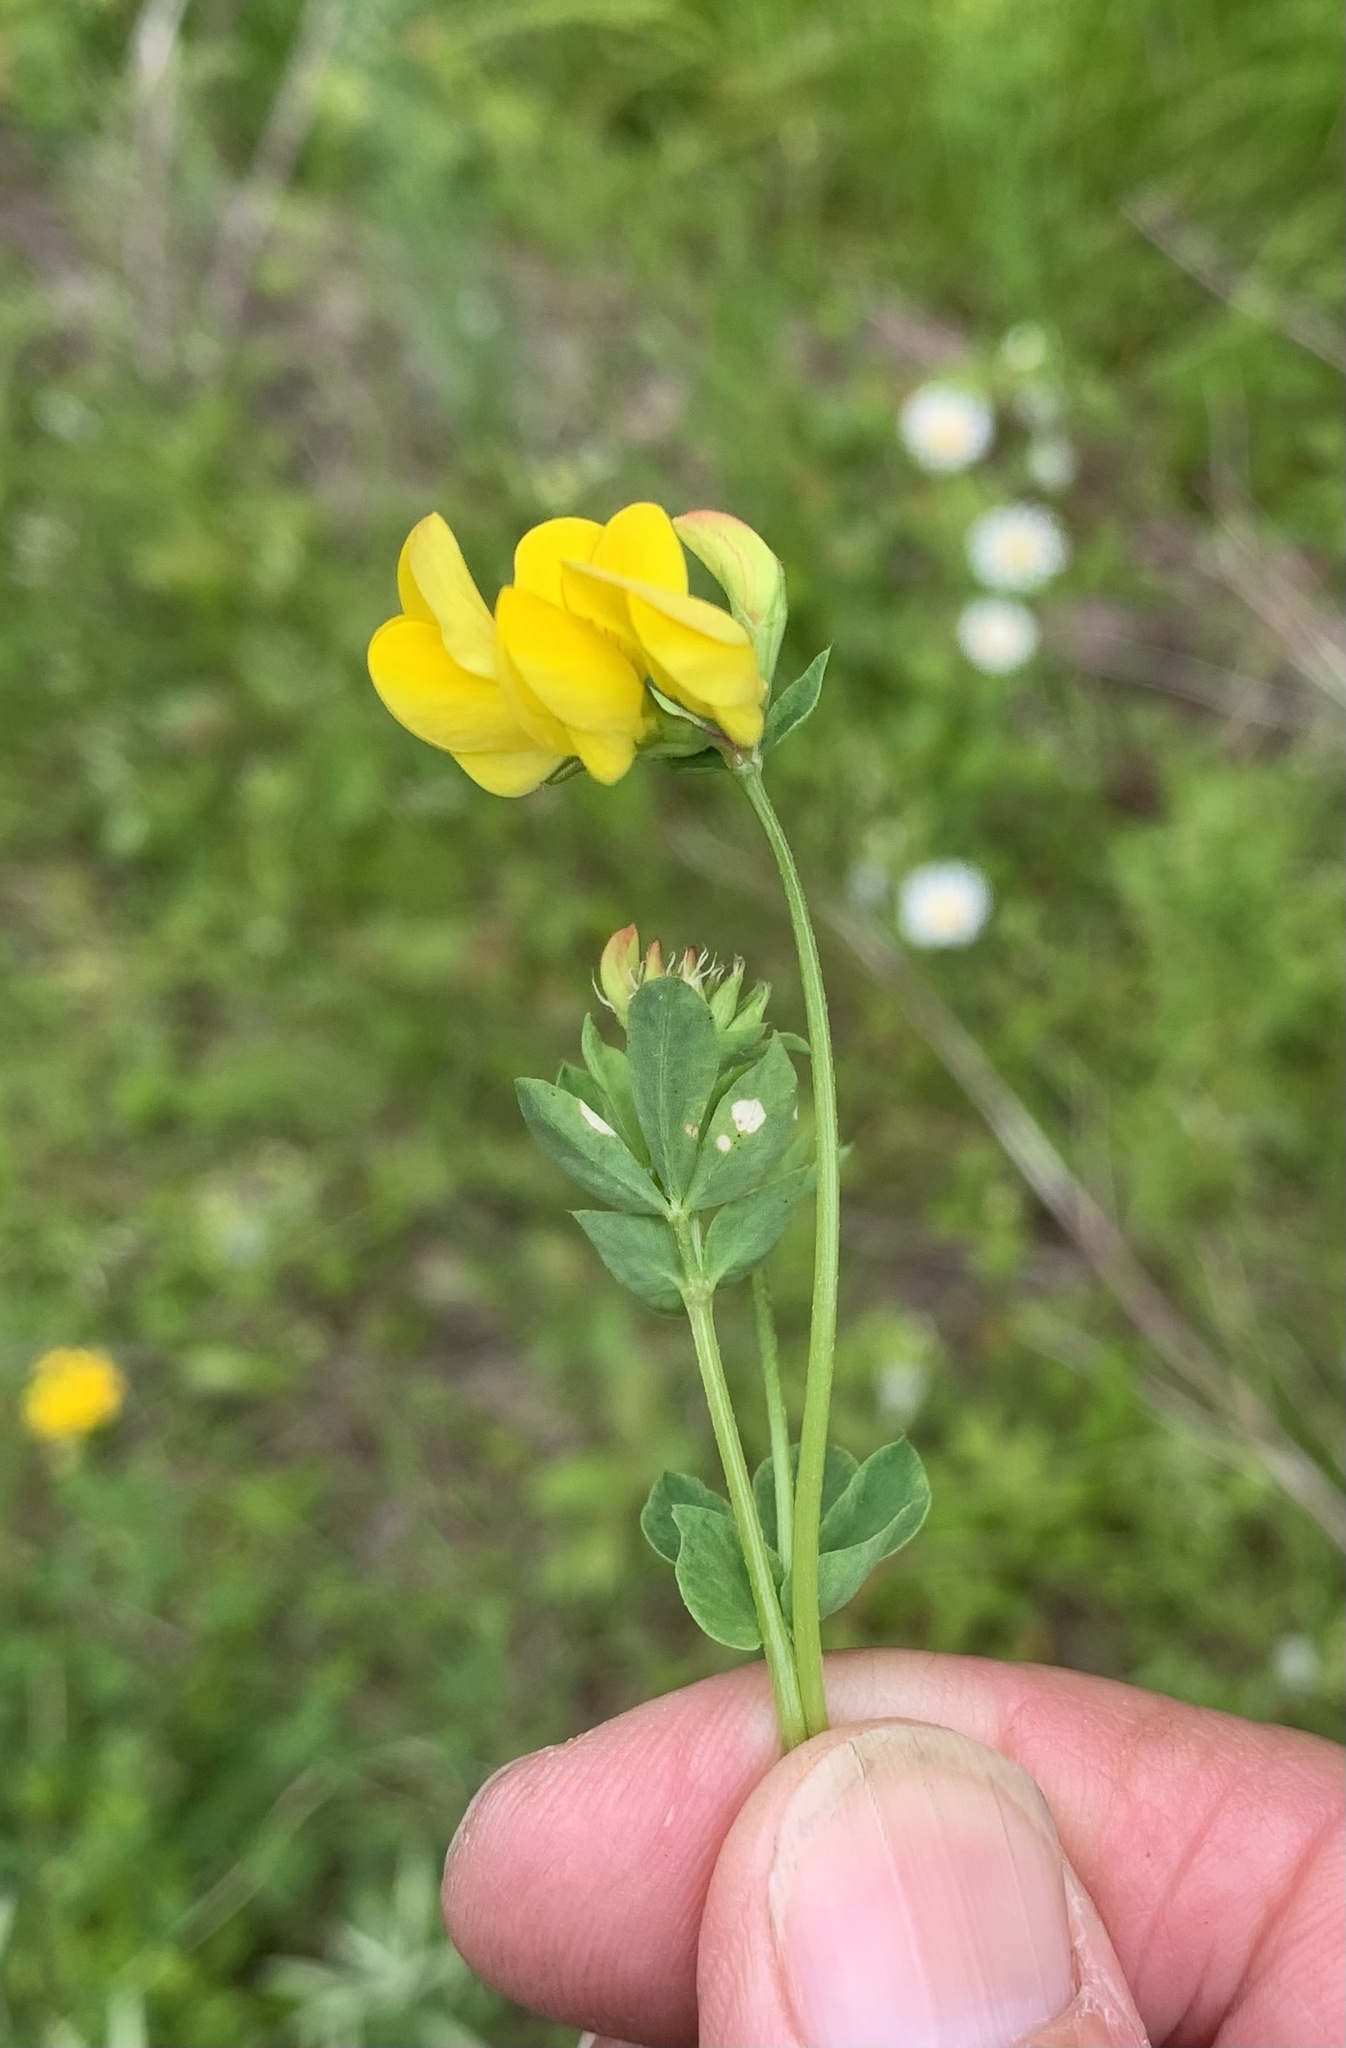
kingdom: Plantae
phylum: Tracheophyta
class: Magnoliopsida
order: Fabales
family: Fabaceae
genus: Lotus
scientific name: Lotus corniculatus
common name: Common bird's-foot-trefoil
